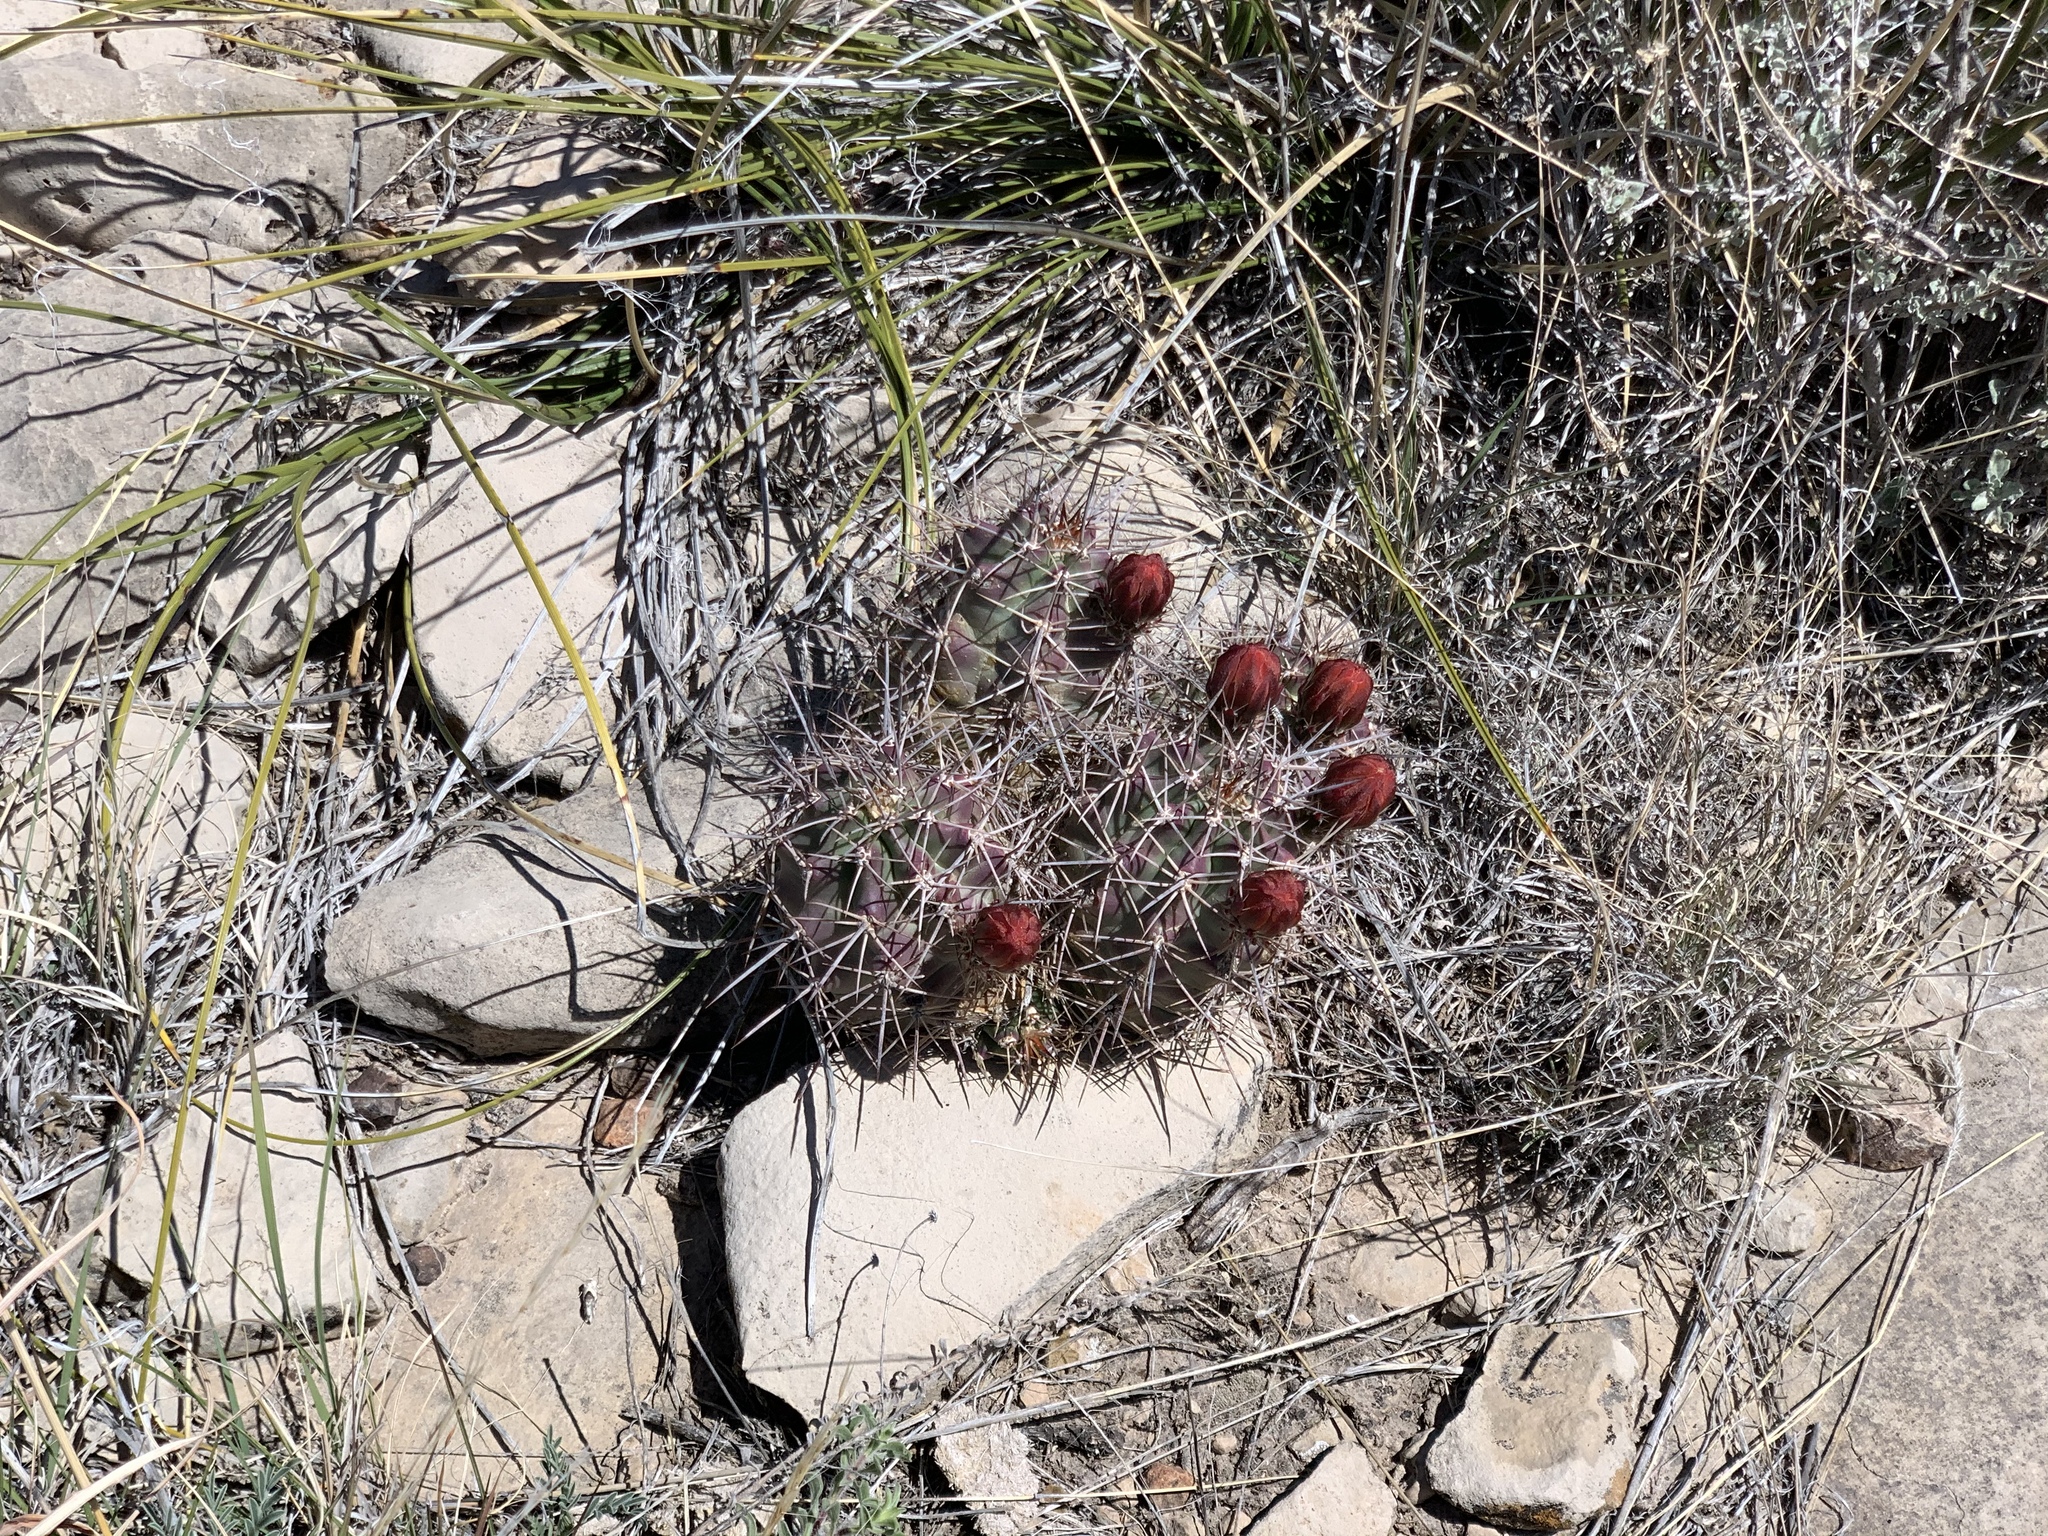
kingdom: Plantae
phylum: Tracheophyta
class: Magnoliopsida
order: Caryophyllales
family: Cactaceae
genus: Echinocereus
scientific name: Echinocereus coccineus
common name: Scarlet hedgehog cactus
